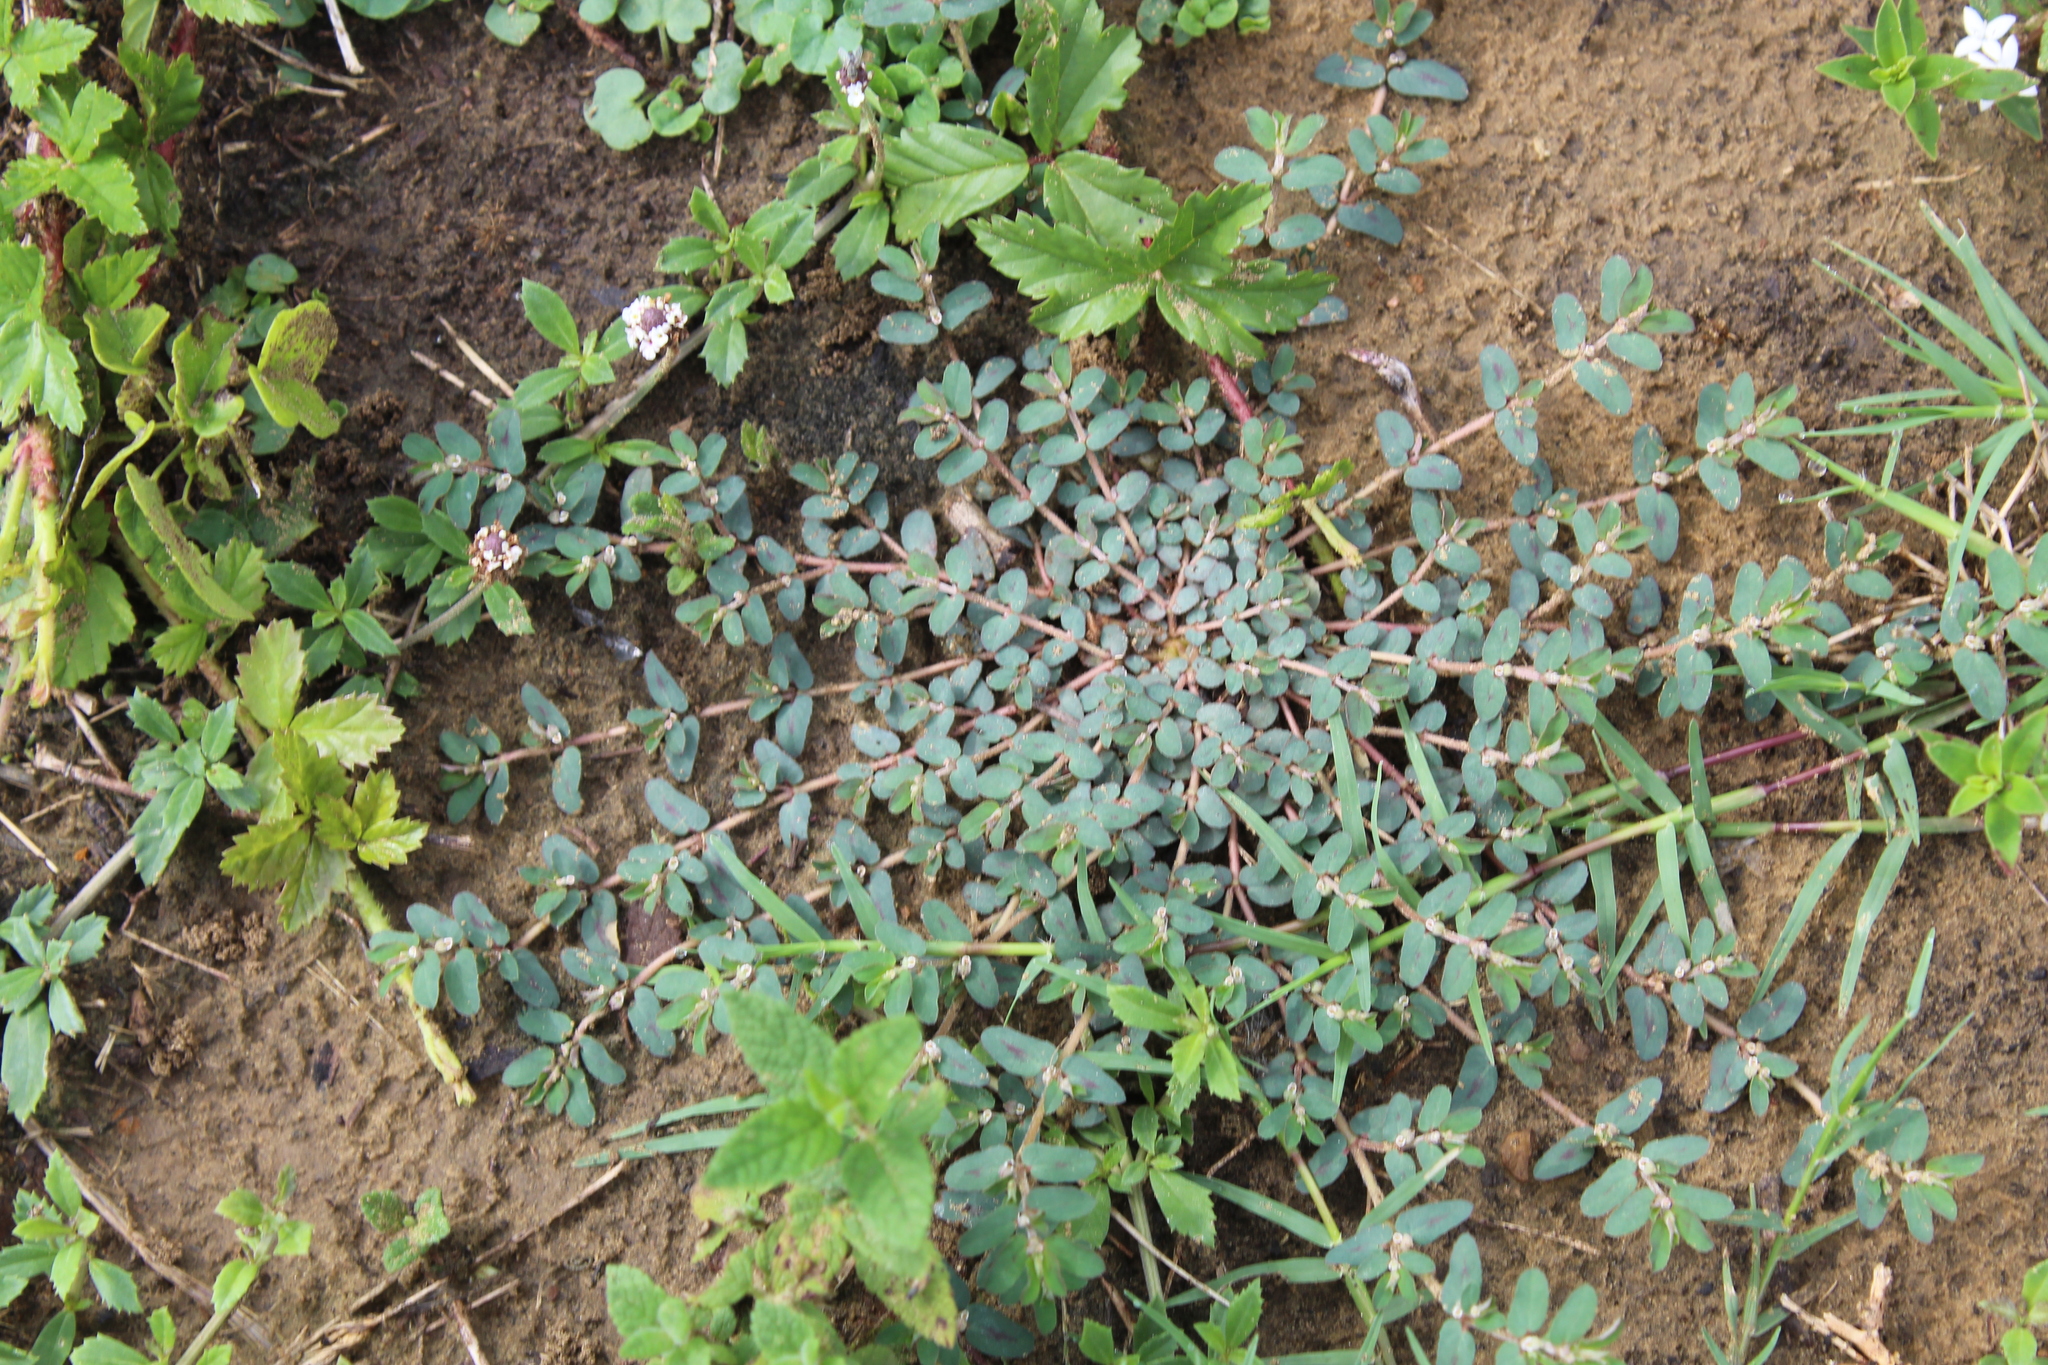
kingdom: Plantae
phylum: Tracheophyta
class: Magnoliopsida
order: Malpighiales
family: Euphorbiaceae
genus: Euphorbia
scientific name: Euphorbia maculata
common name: Spotted spurge
